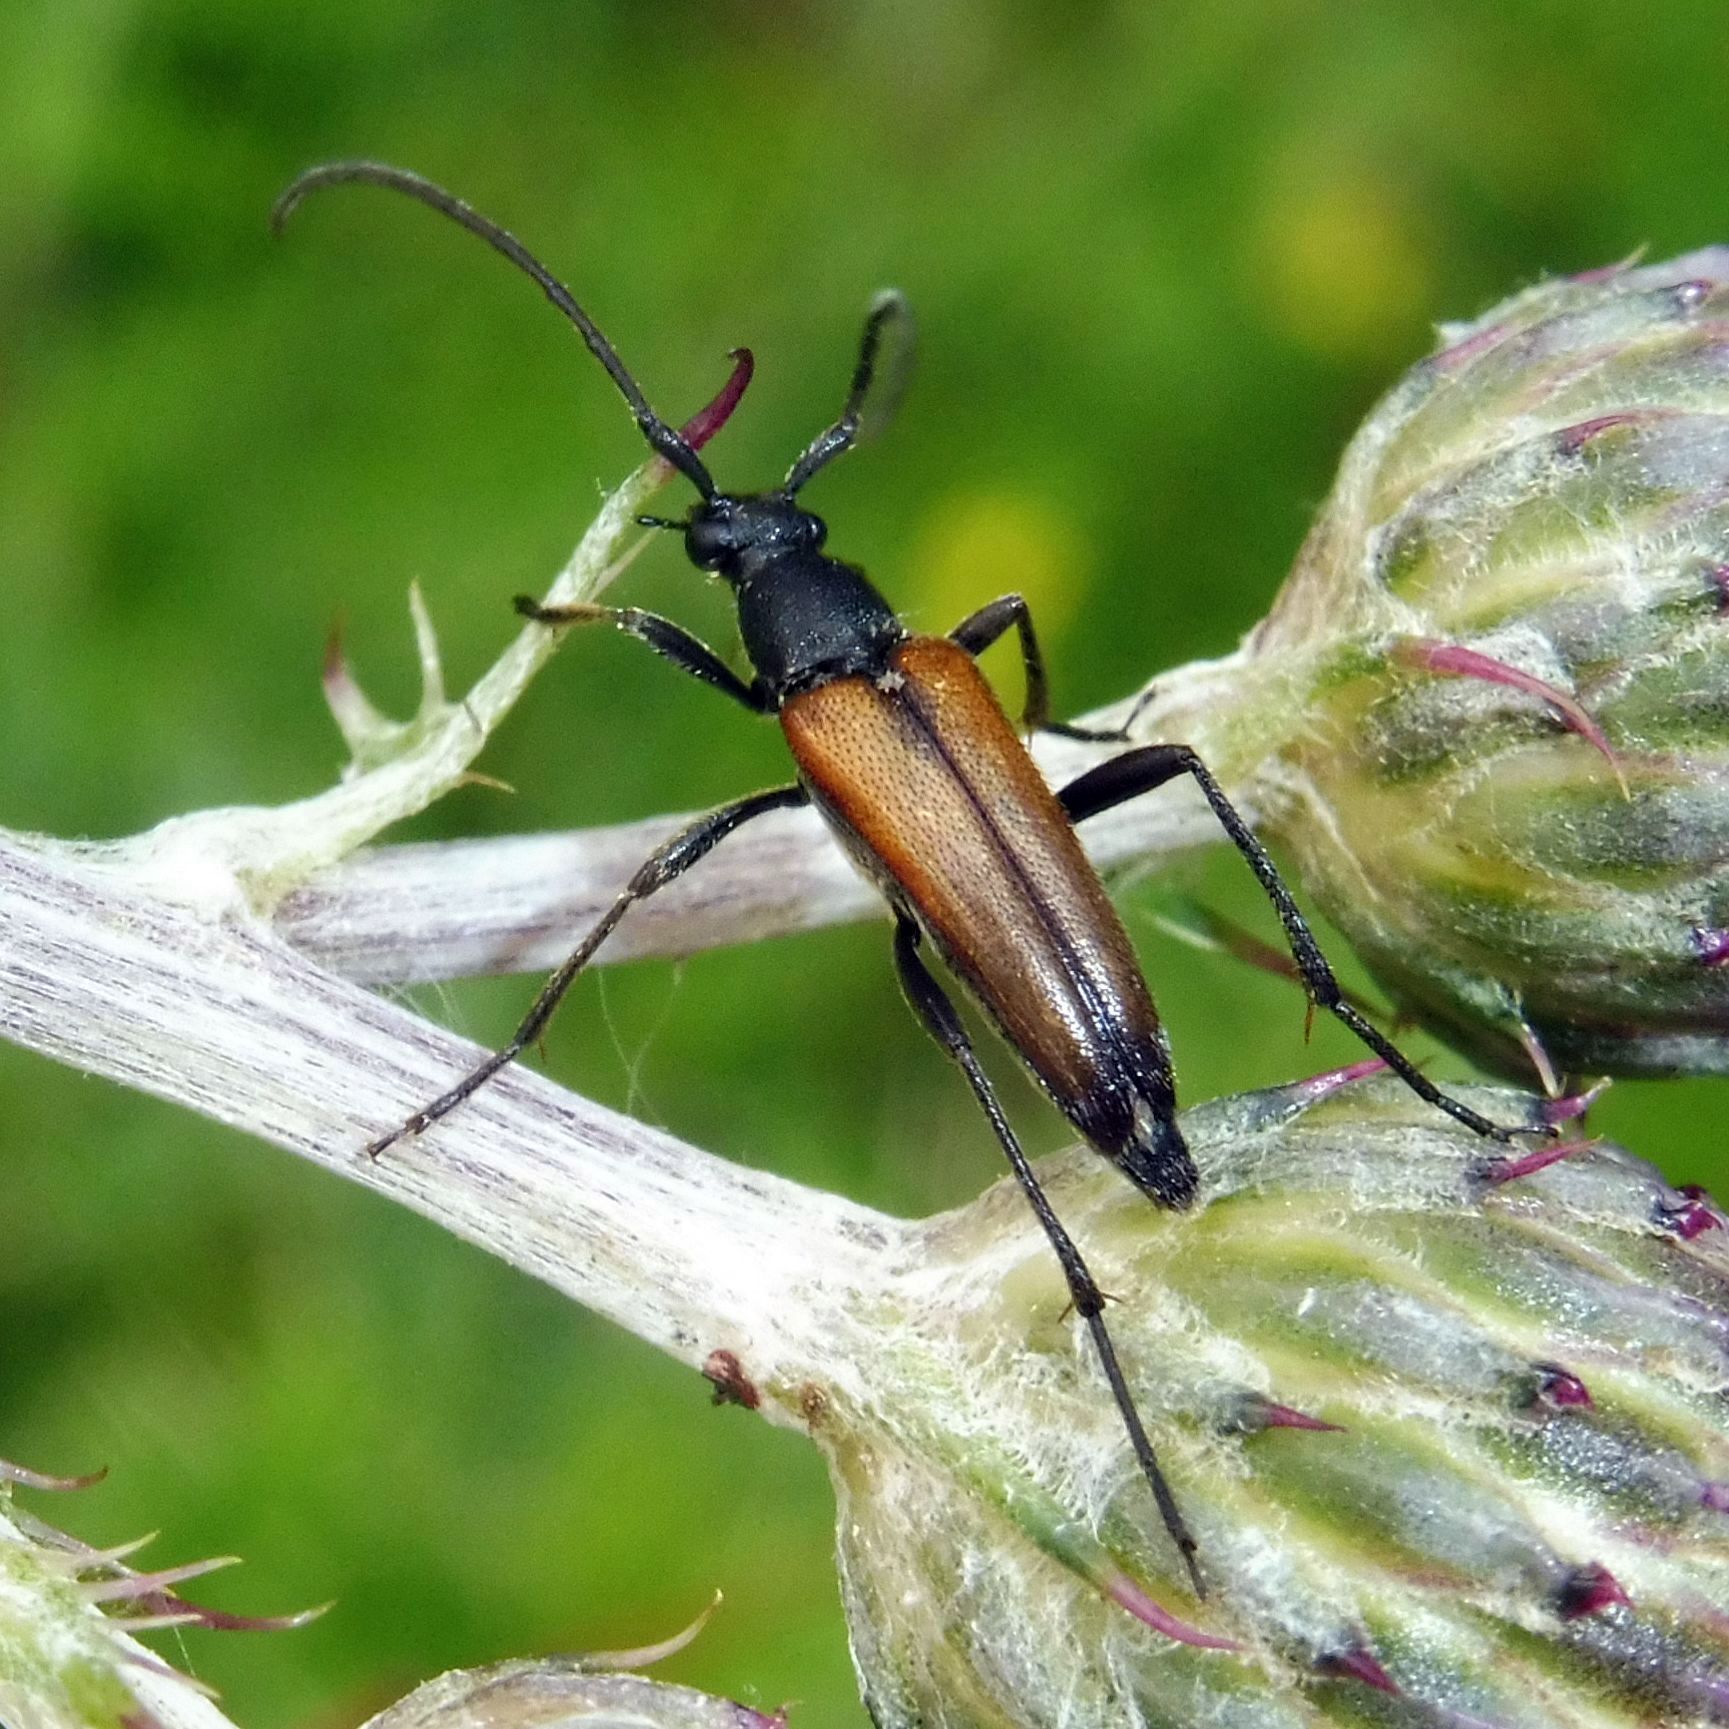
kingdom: Animalia
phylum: Arthropoda
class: Insecta
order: Coleoptera
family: Cerambycidae
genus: Stenurella
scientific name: Stenurella melanura
